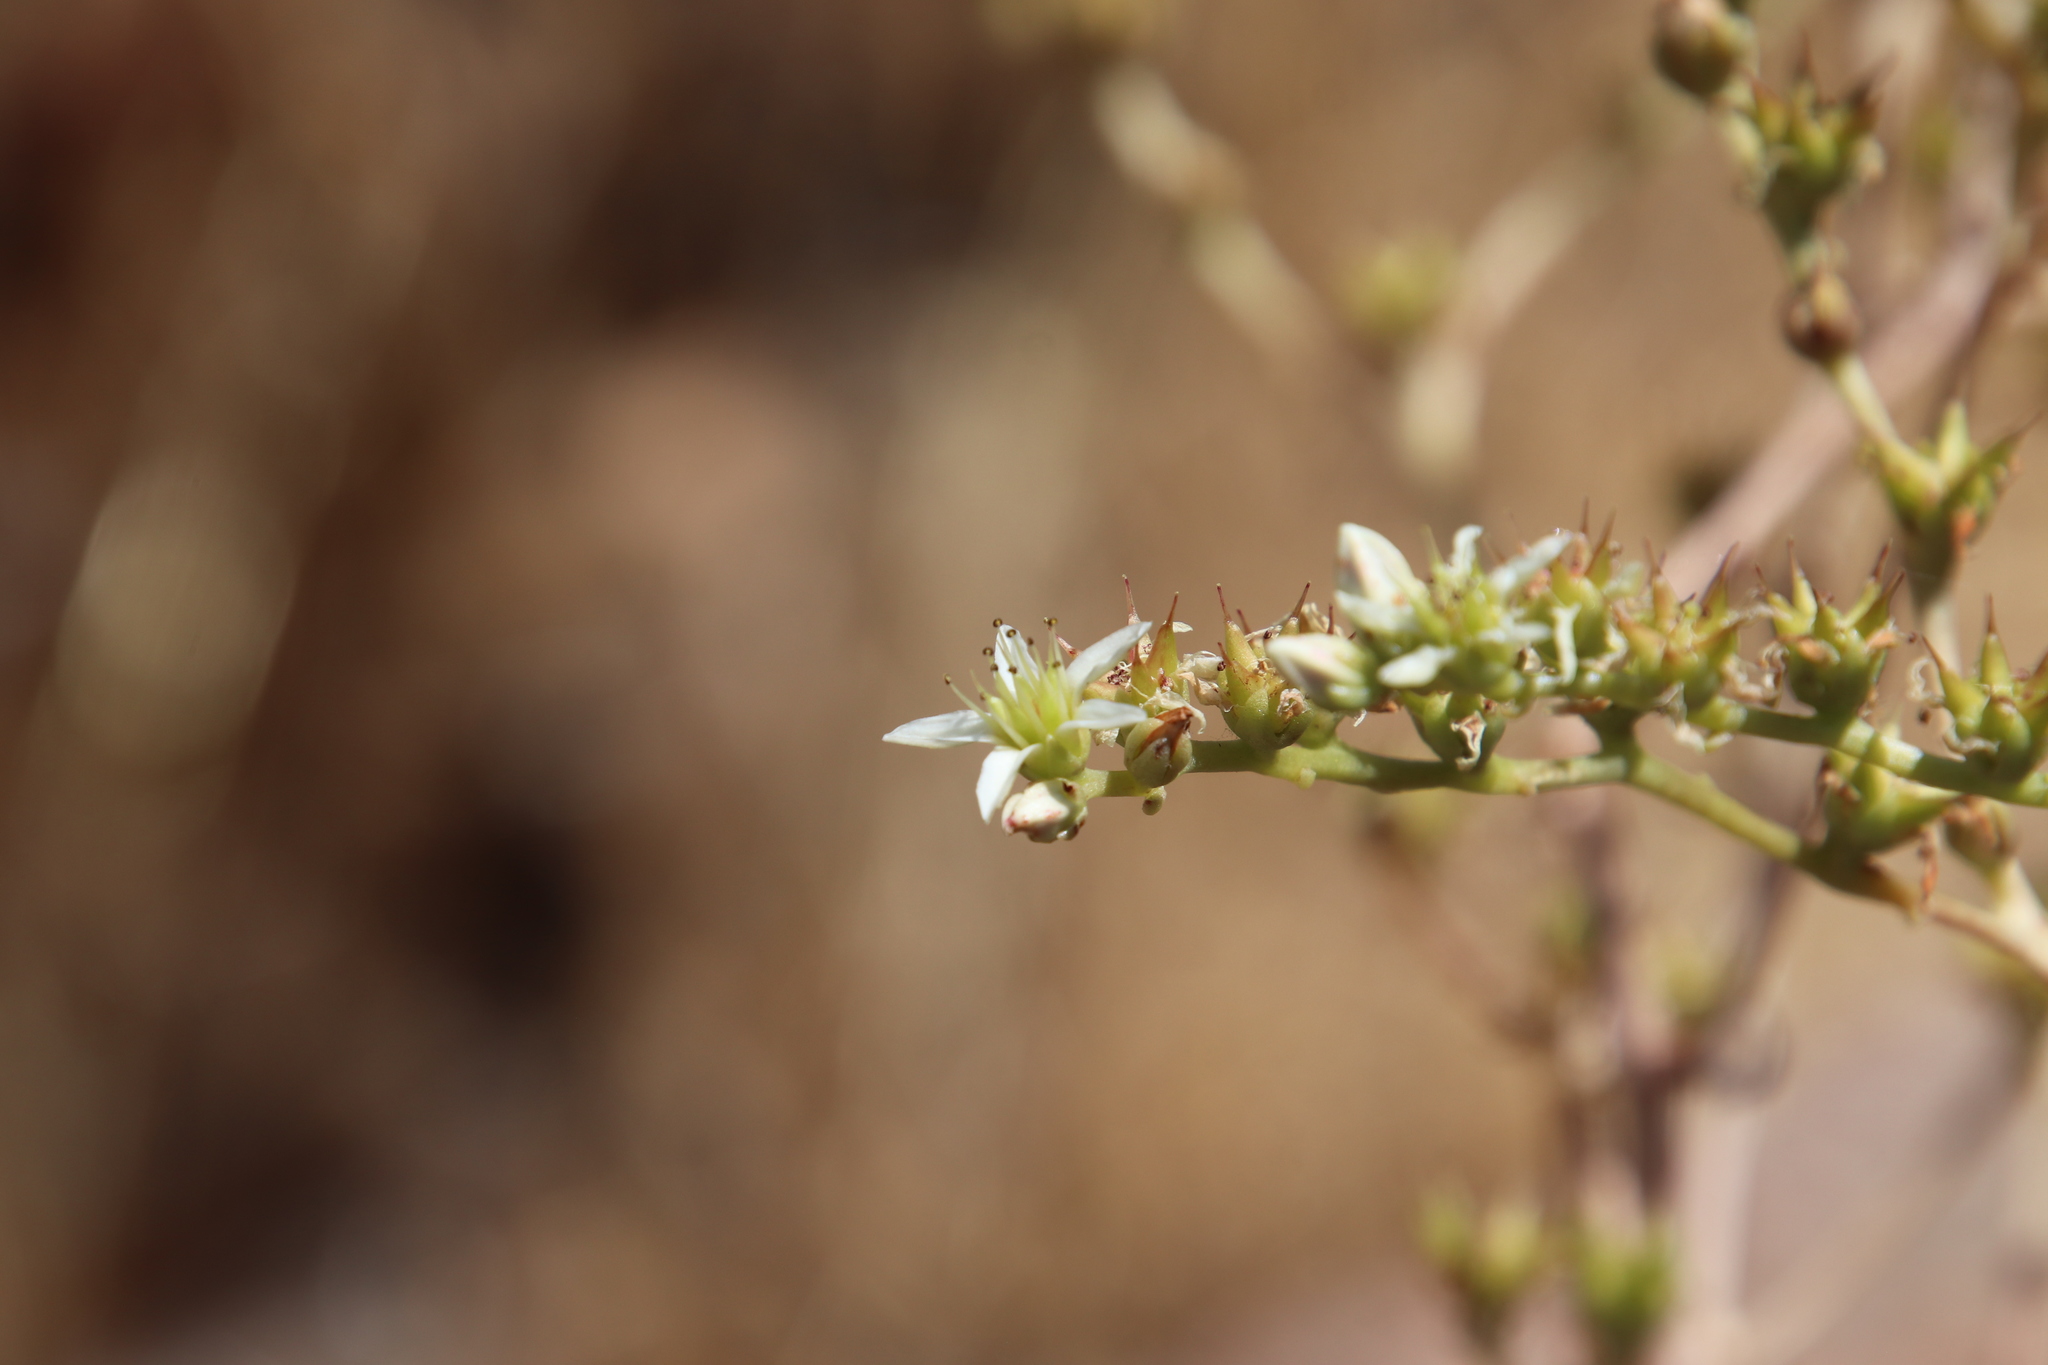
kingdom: Plantae
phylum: Tracheophyta
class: Magnoliopsida
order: Saxifragales
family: Crassulaceae
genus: Dudleya
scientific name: Dudleya edulis
